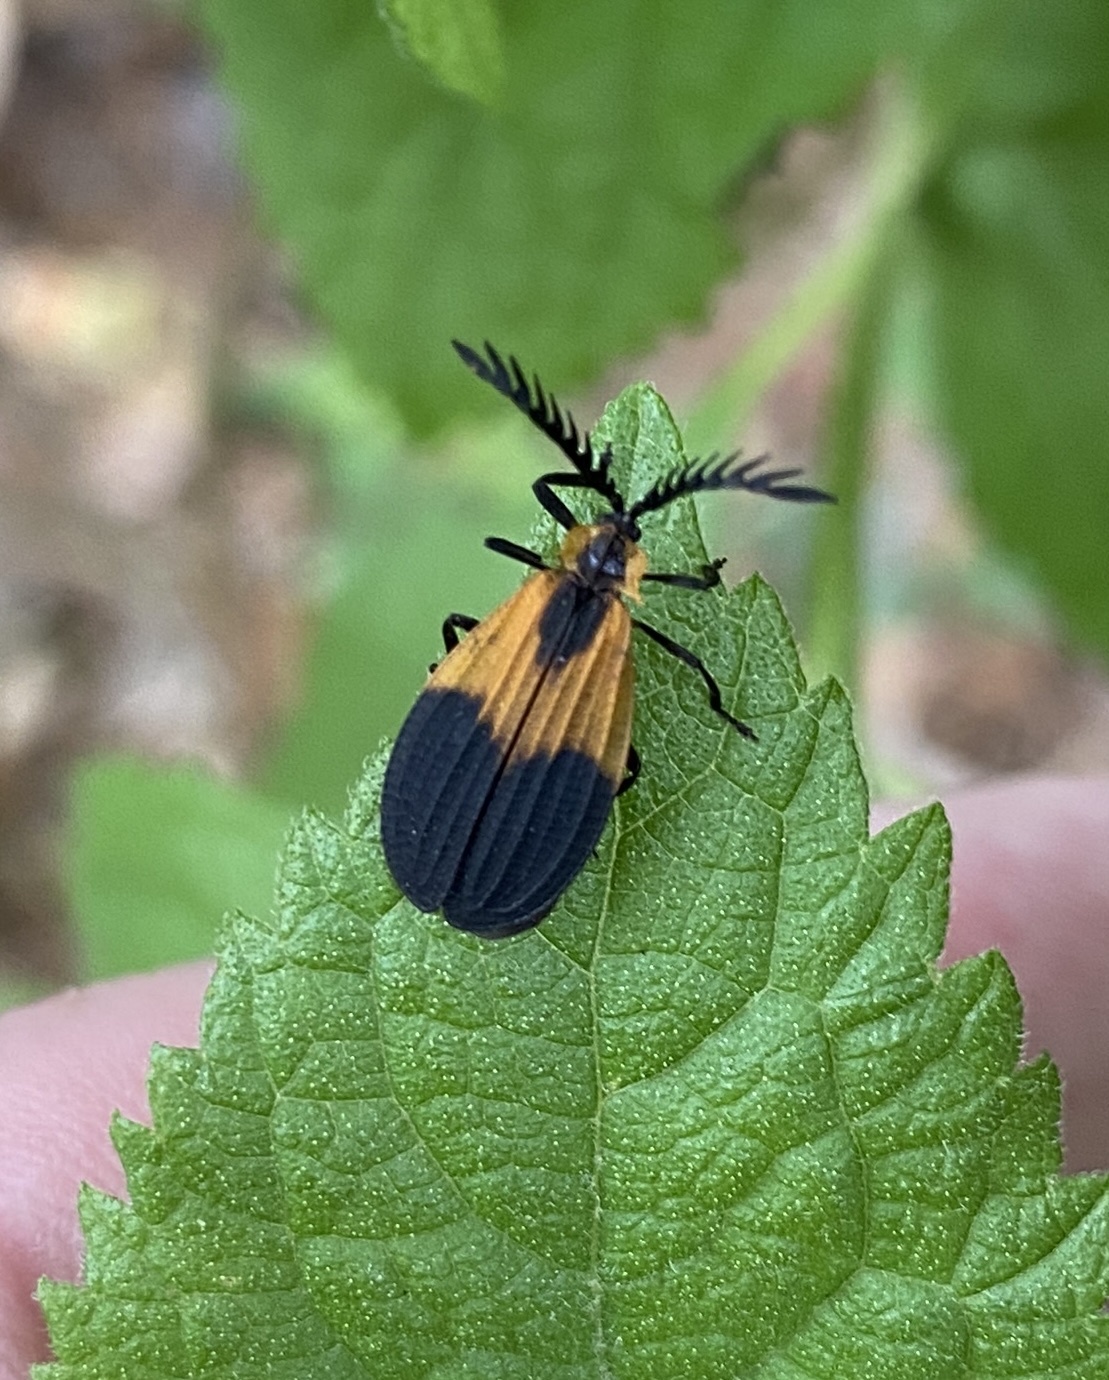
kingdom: Animalia
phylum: Arthropoda
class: Insecta
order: Coleoptera
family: Lycidae
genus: Caenia
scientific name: Caenia dimidiata
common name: Terminal net-winged beetle
